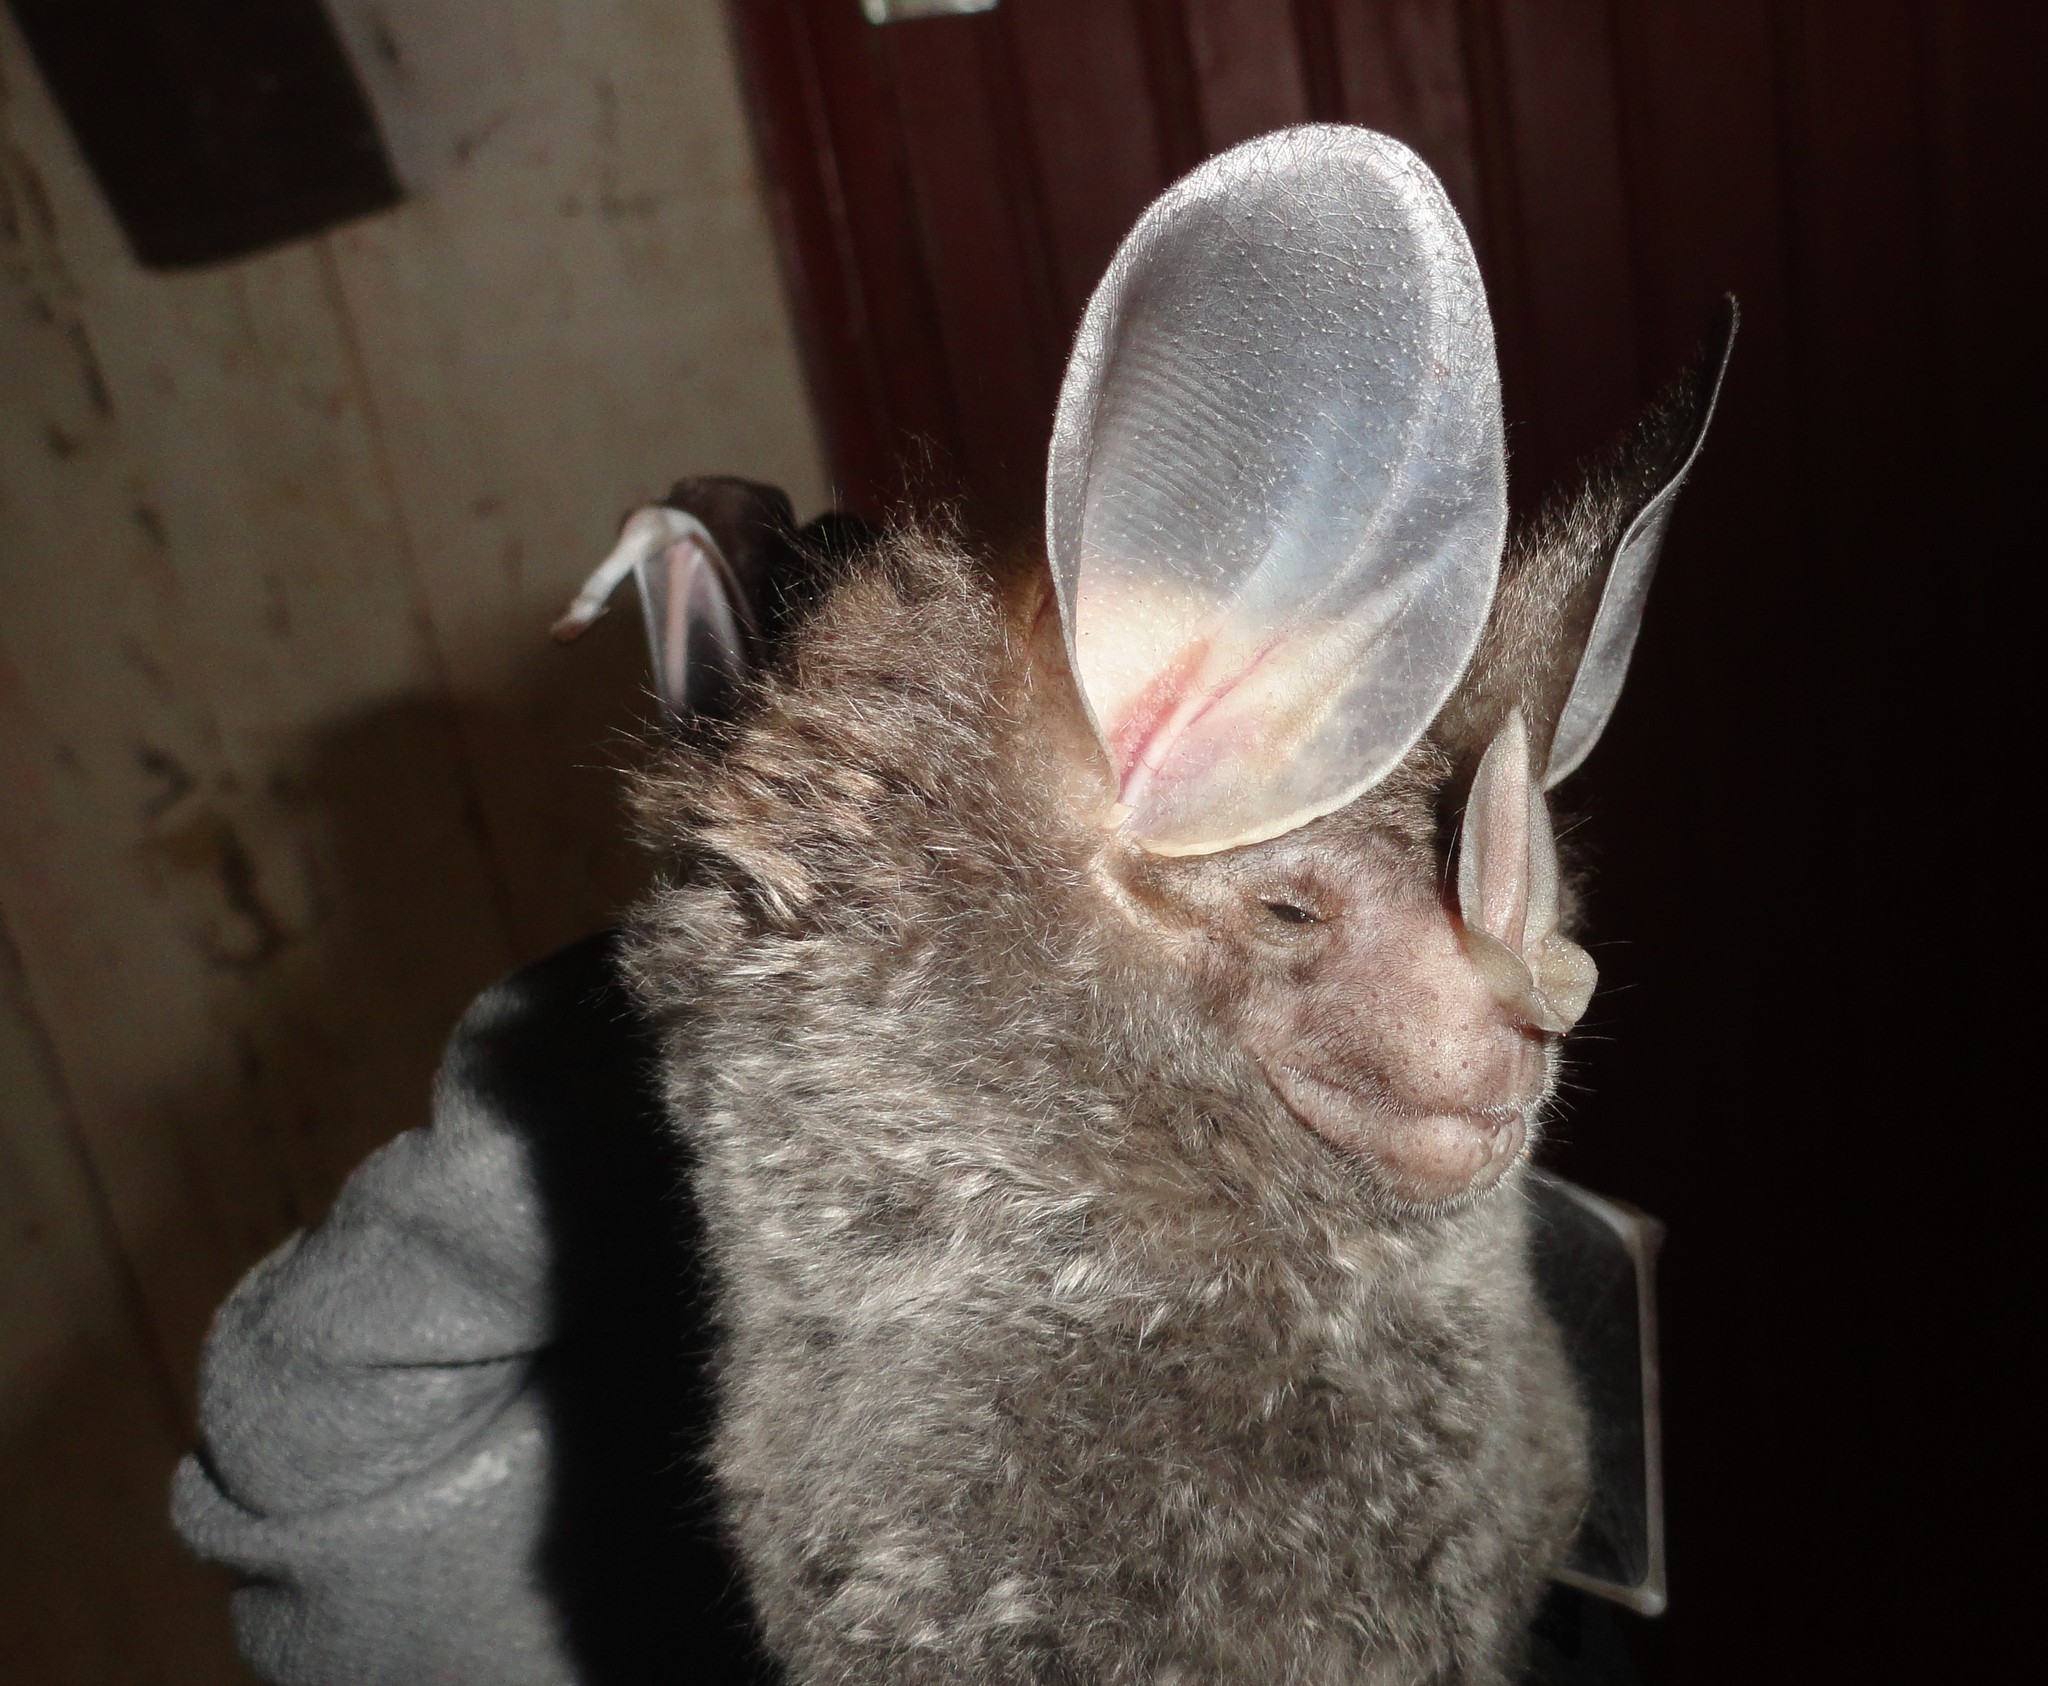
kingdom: Animalia
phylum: Chordata
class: Mammalia
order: Chiroptera
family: Phyllostomidae
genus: Chrotopterus
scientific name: Chrotopterus auritus
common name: Woolly false vampire bat
